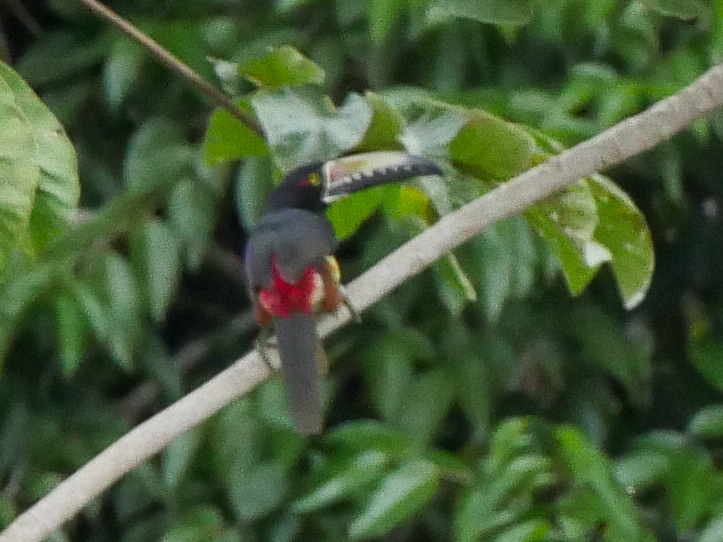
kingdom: Animalia
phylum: Chordata
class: Aves
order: Piciformes
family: Ramphastidae
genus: Pteroglossus
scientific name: Pteroglossus torquatus
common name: Collared aracari
